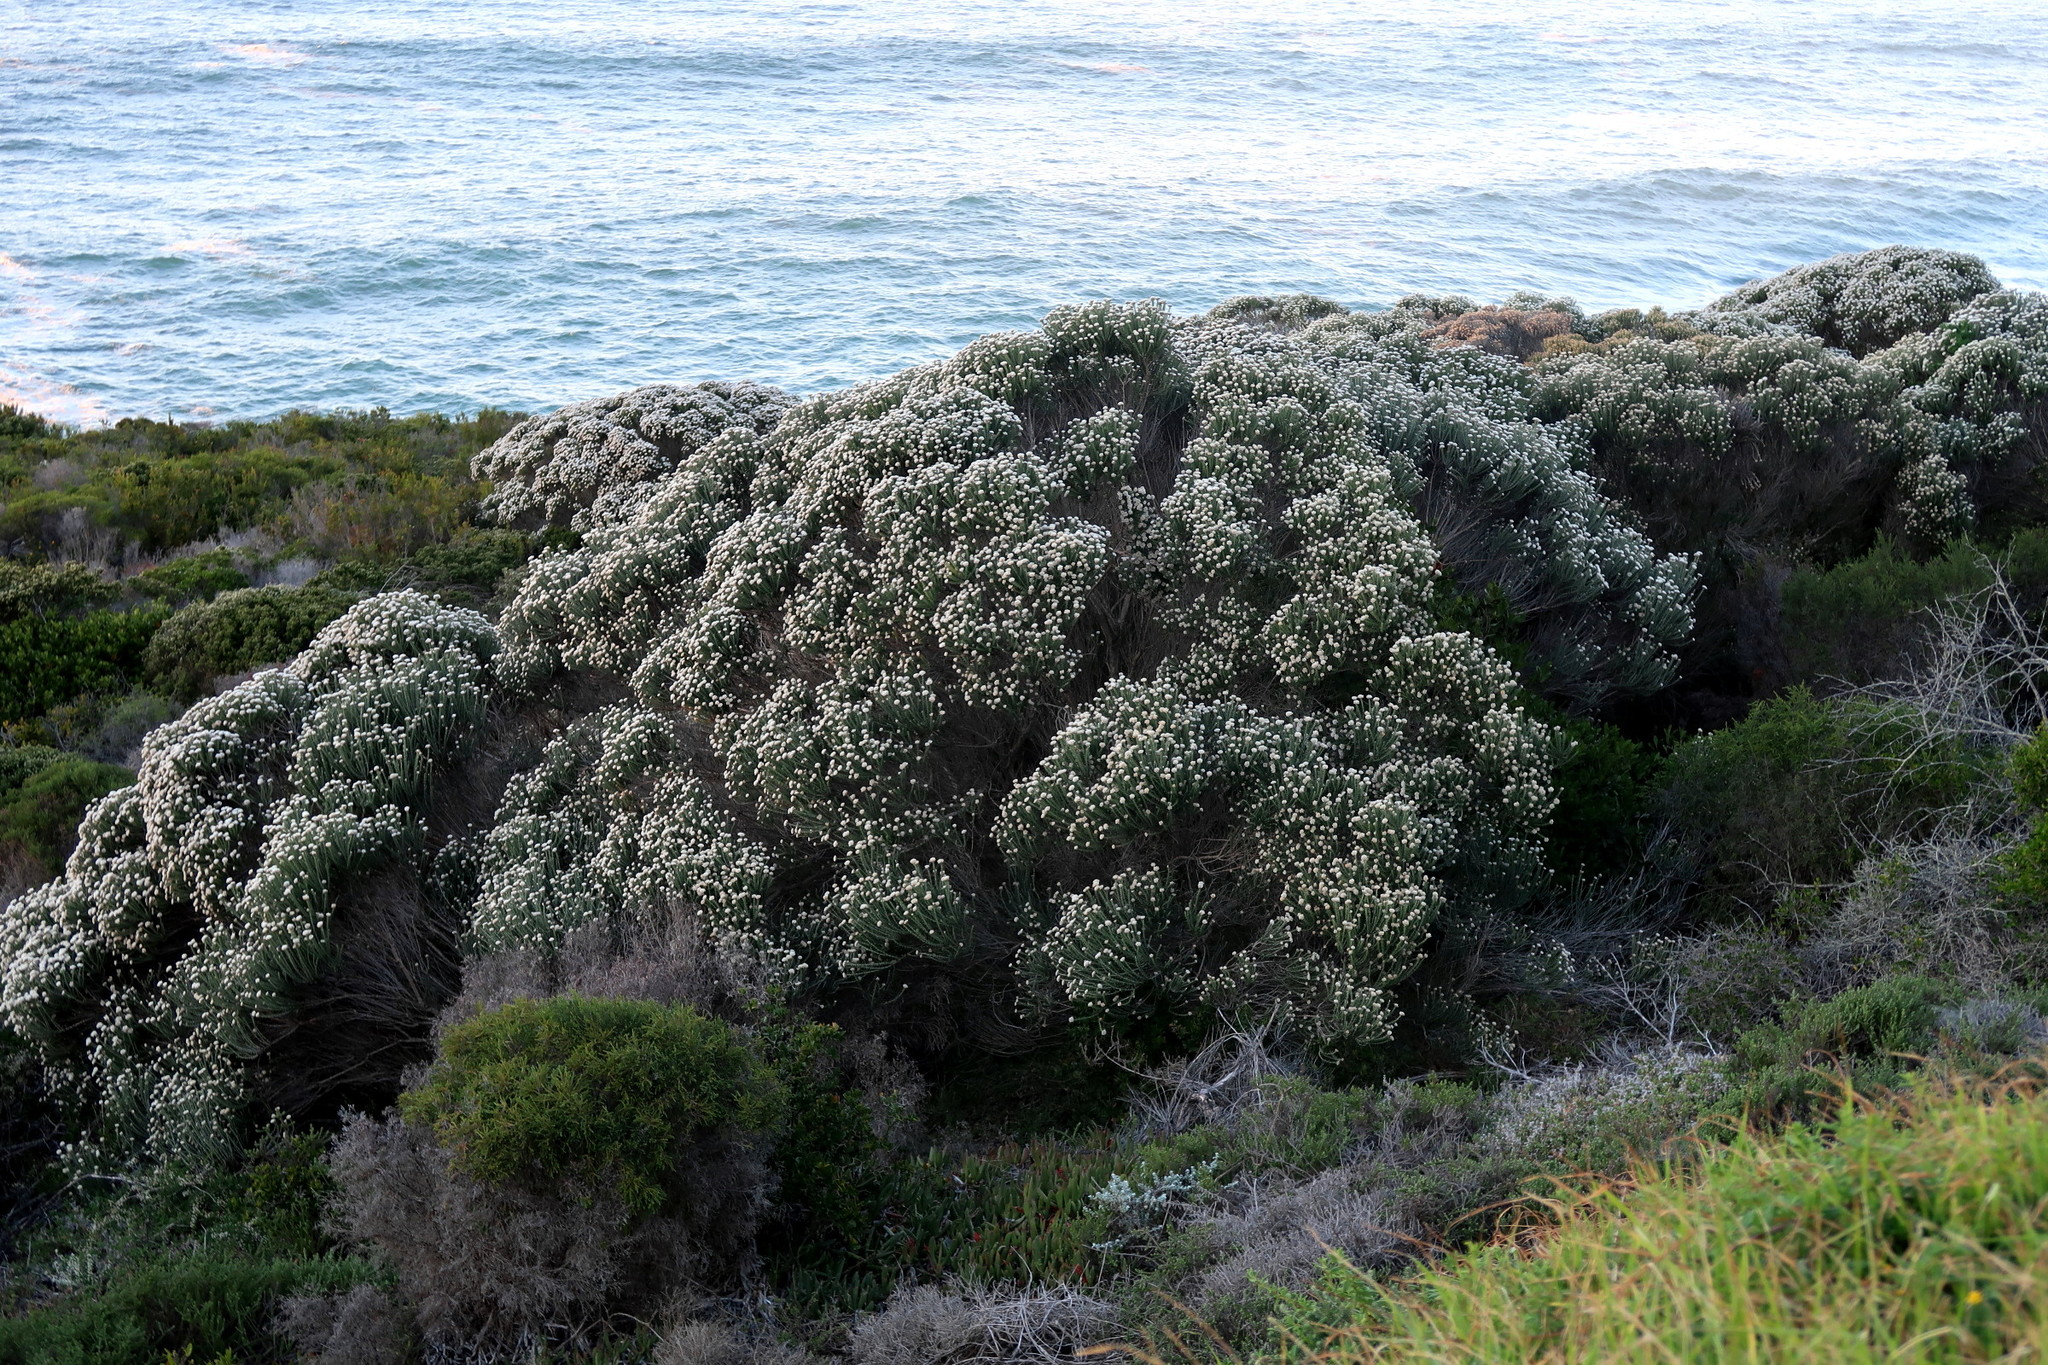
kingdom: Plantae
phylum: Tracheophyta
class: Magnoliopsida
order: Asterales
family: Asteraceae
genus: Metalasia
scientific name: Metalasia muricata
